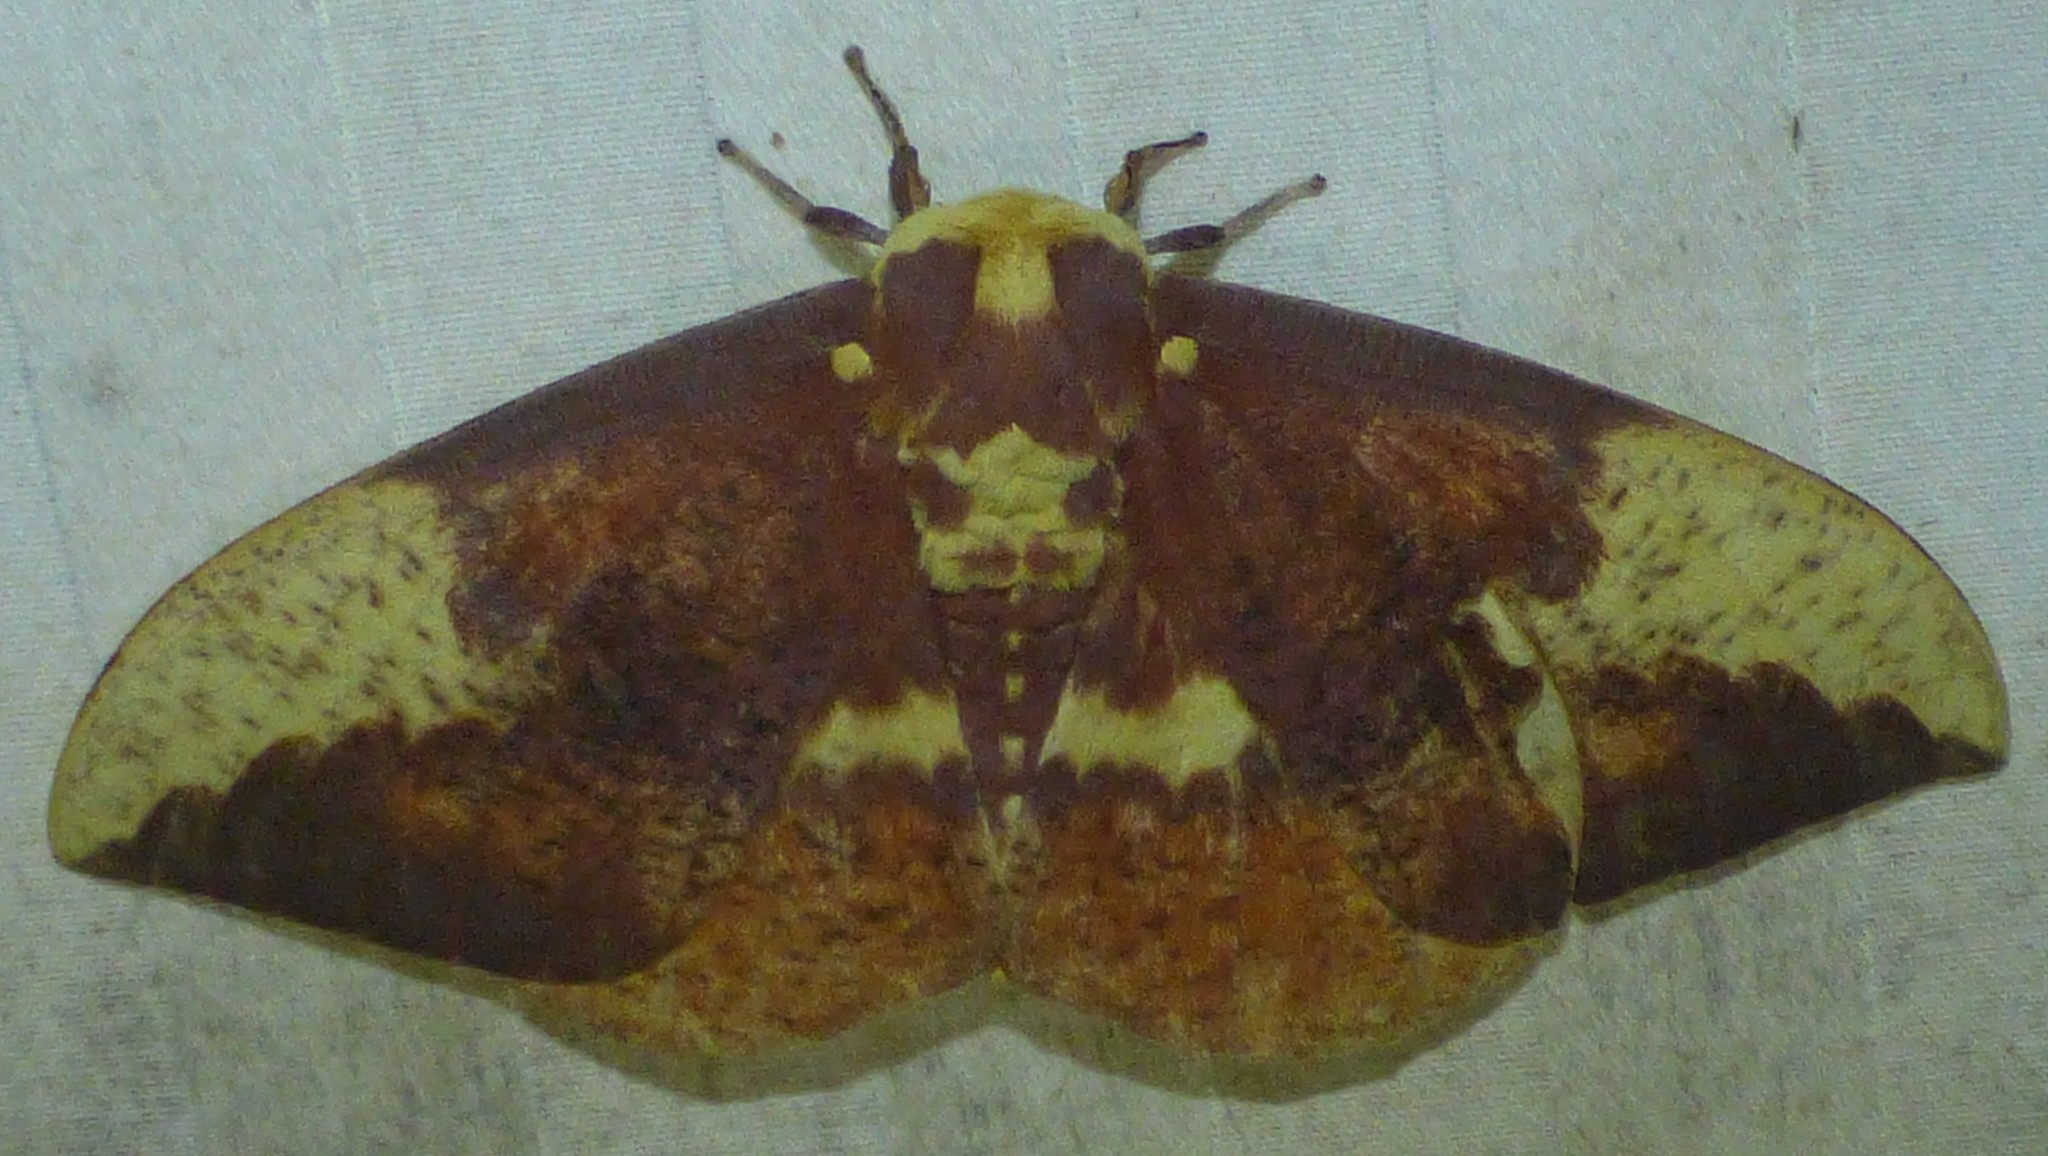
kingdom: Animalia
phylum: Arthropoda
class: Insecta
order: Lepidoptera
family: Saturniidae
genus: Eacles
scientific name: Eacles imperialis
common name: Imperial moth
